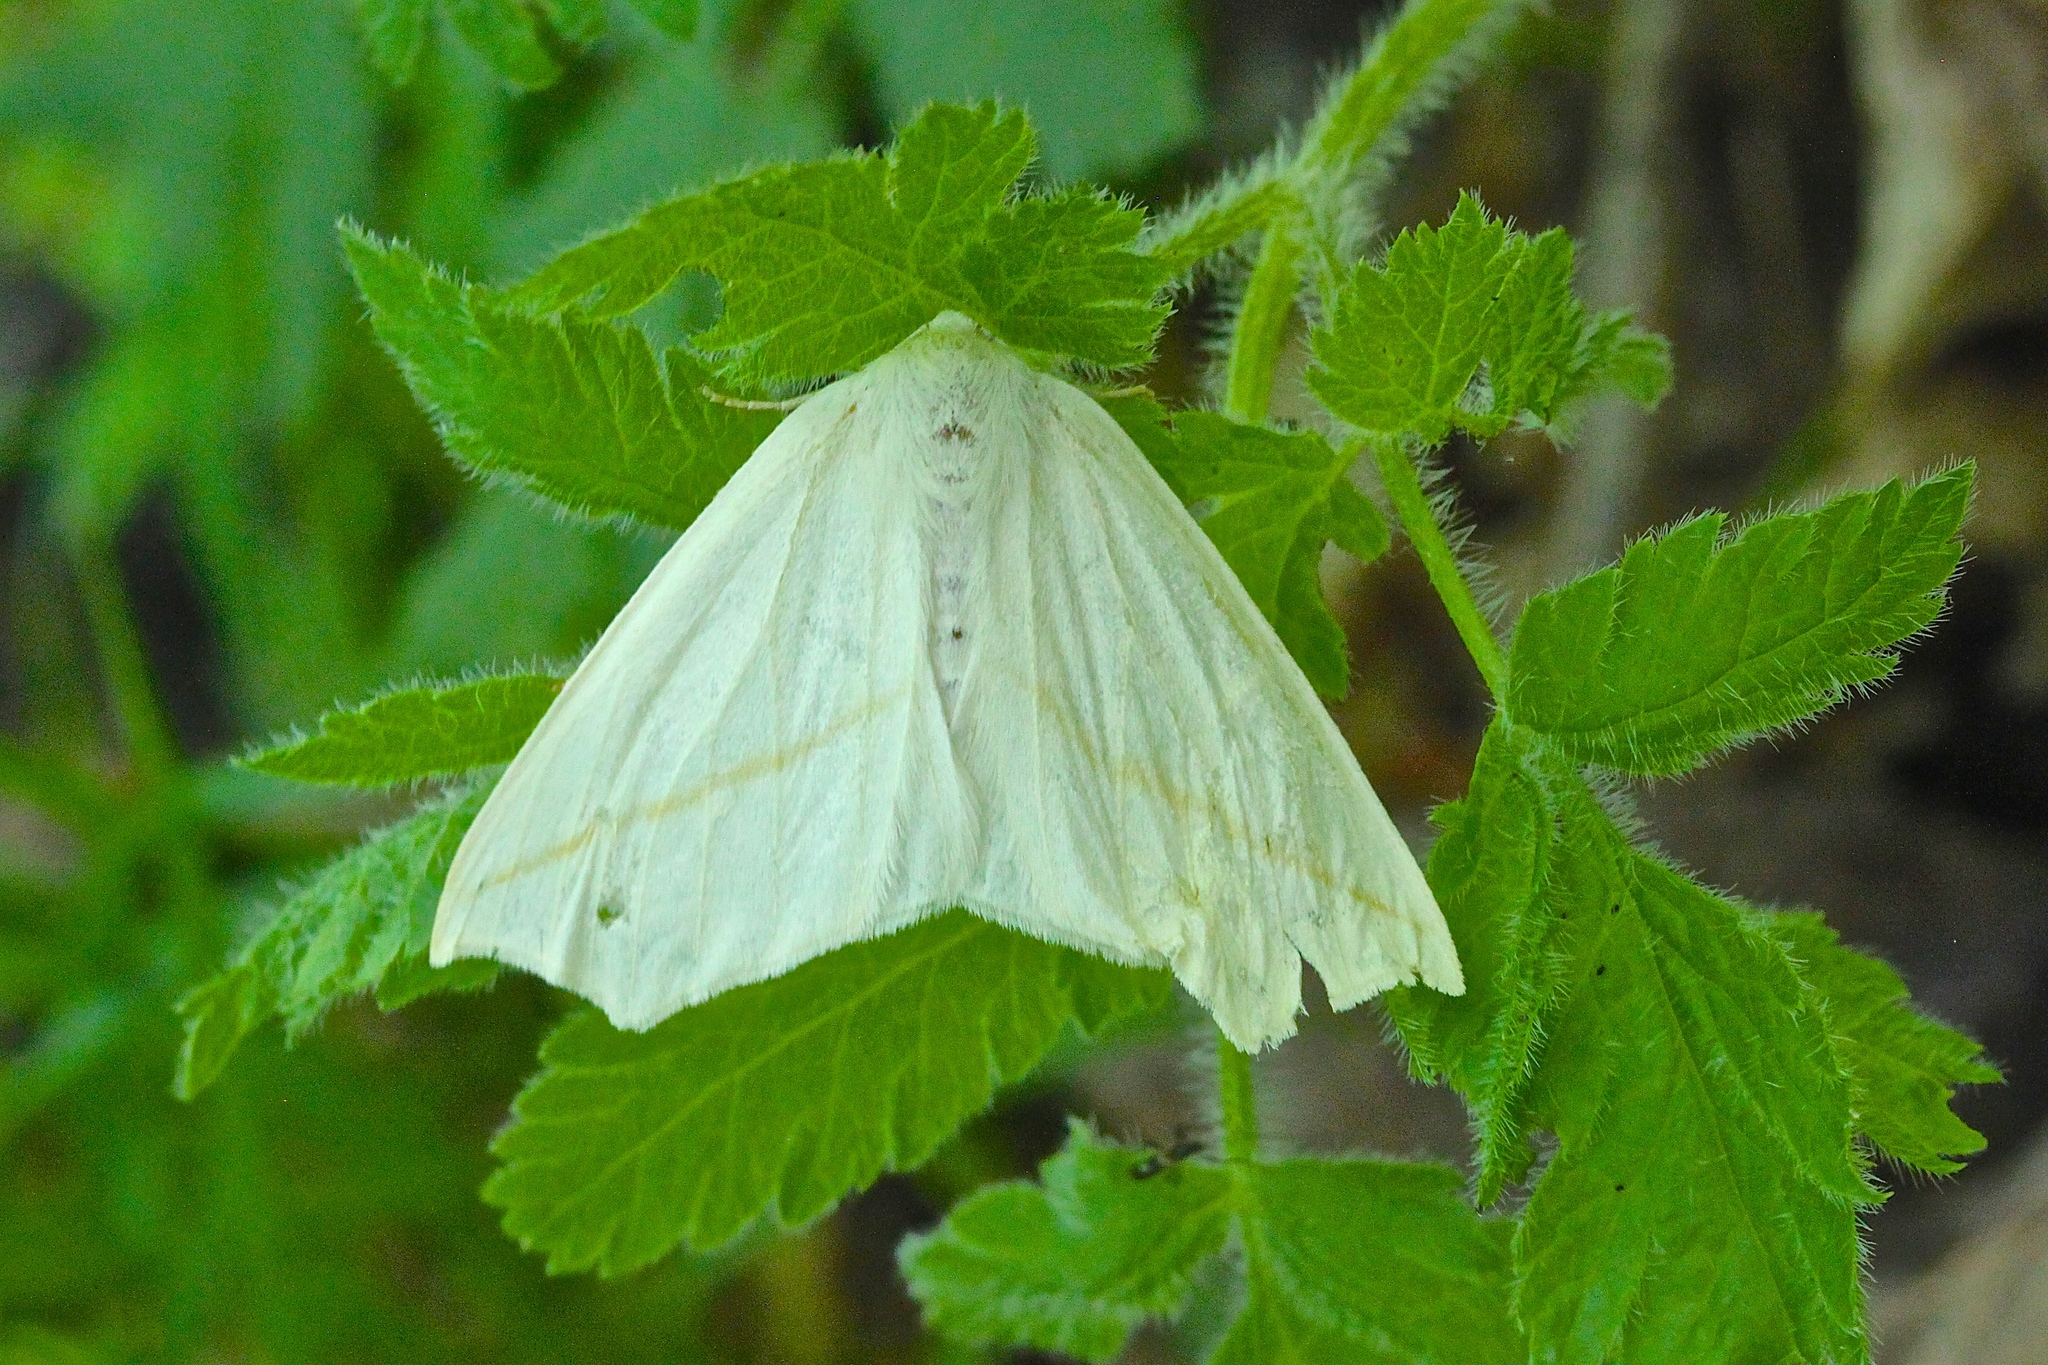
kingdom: Animalia
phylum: Arthropoda
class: Insecta
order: Lepidoptera
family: Geometridae
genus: Tetracis
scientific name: Tetracis cachexiata
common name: White slant-line
